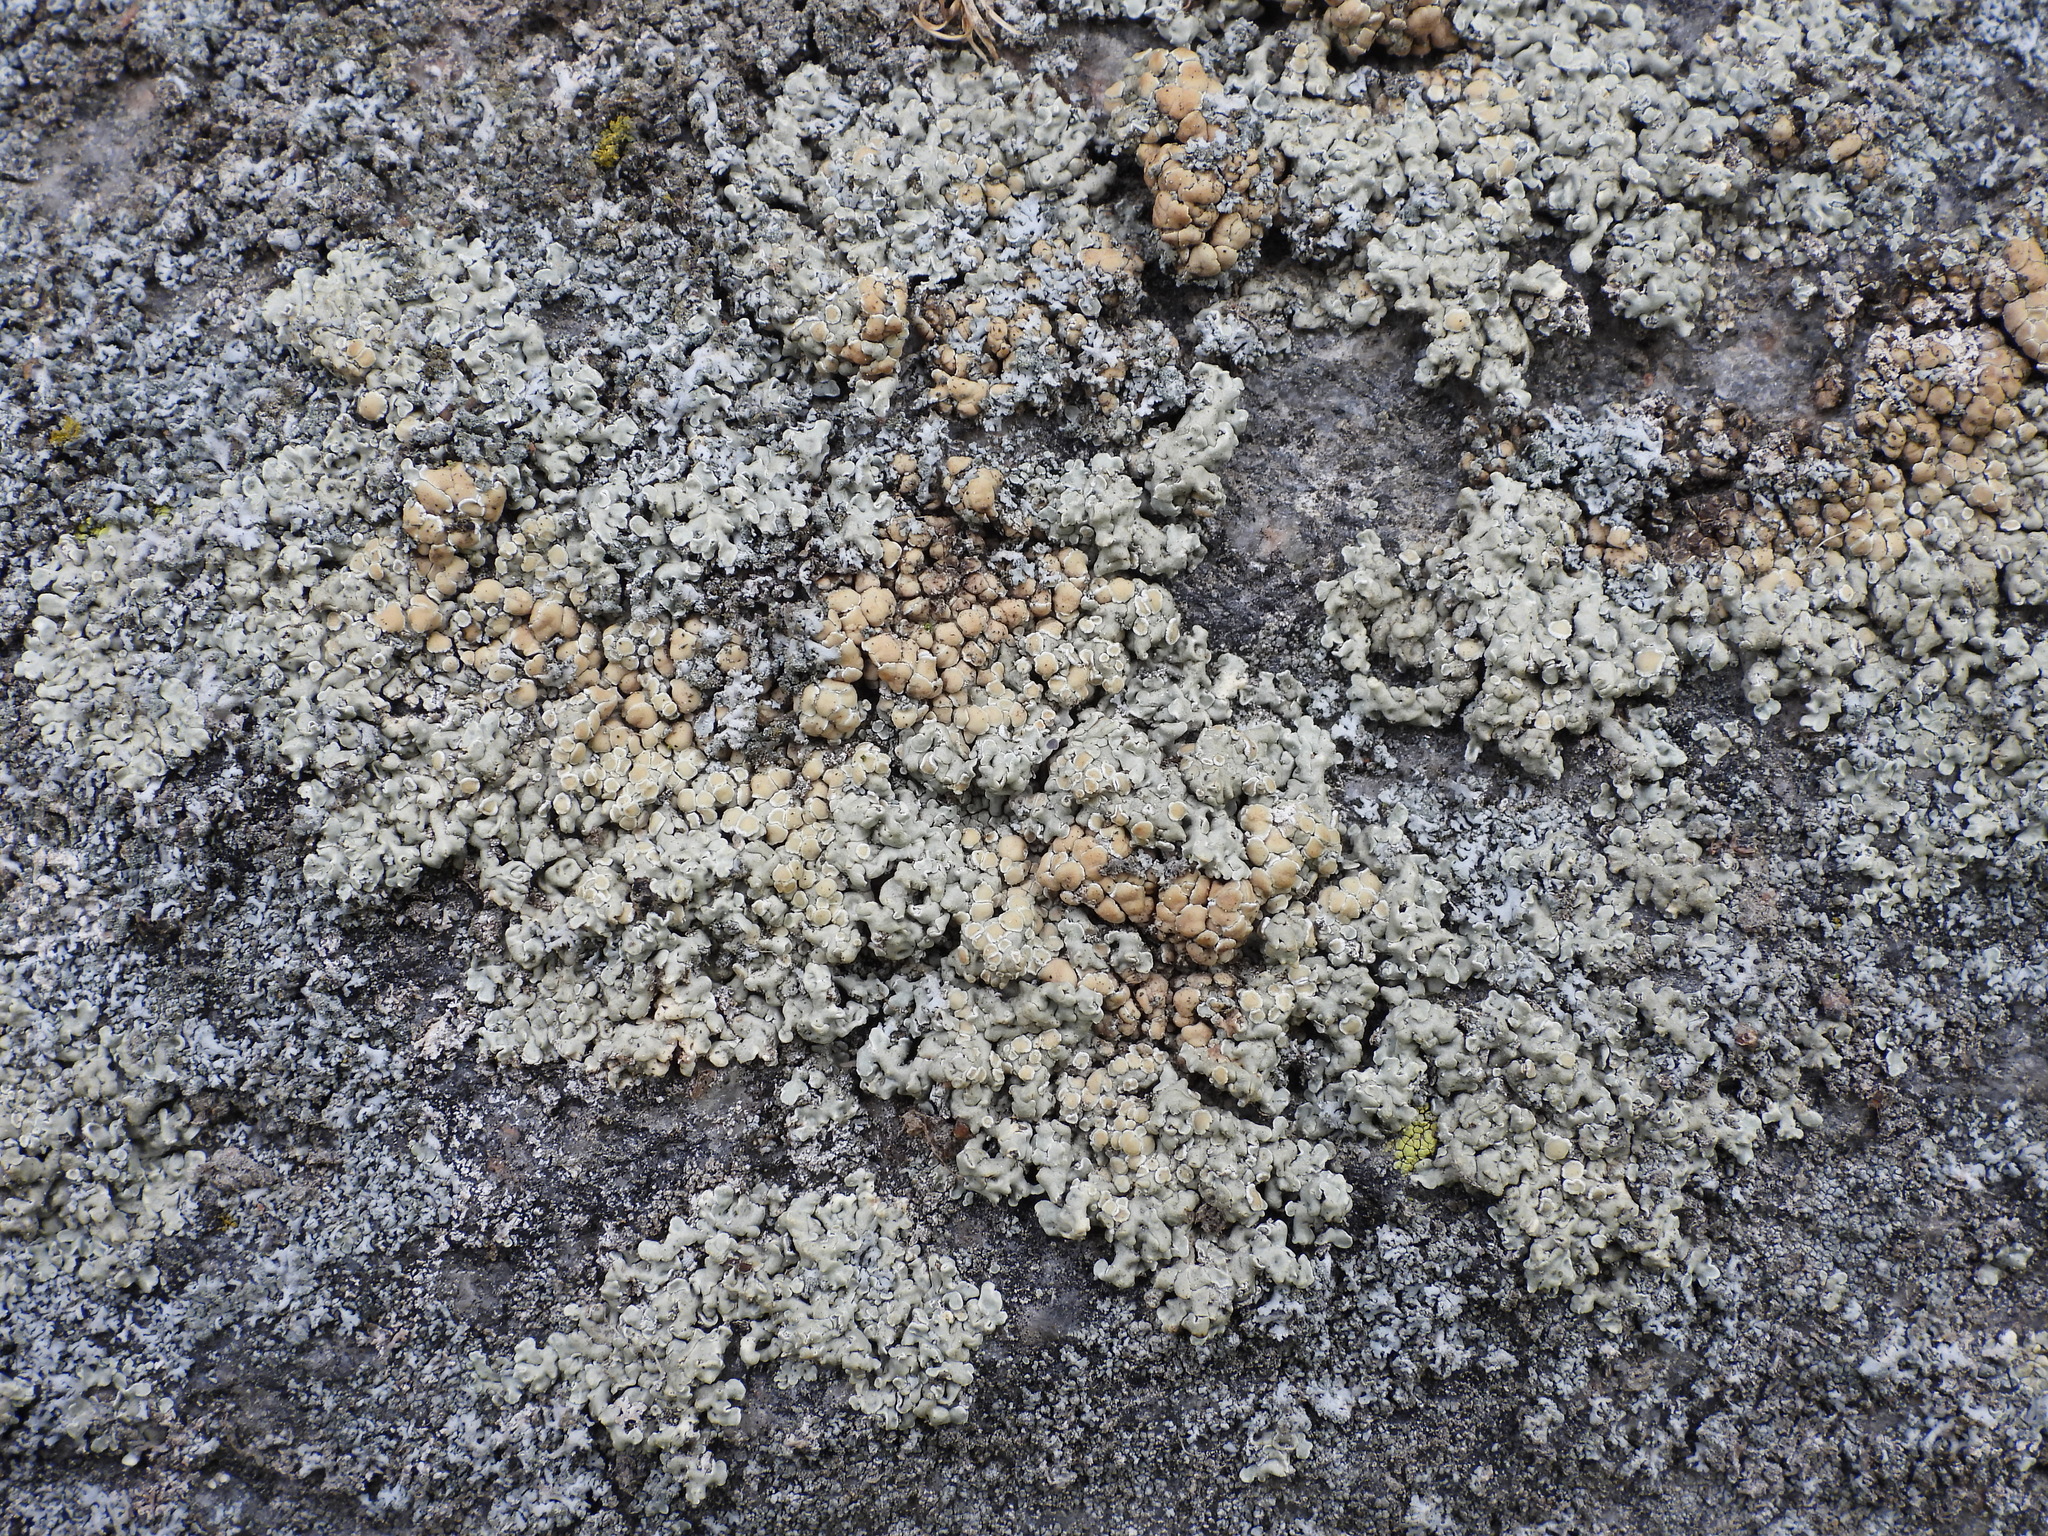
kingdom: Fungi
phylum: Ascomycota
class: Lecanoromycetes
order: Lecanorales
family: Lecanoraceae
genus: Protoparmeliopsis
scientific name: Protoparmeliopsis muralis
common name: Stonewall rim lichen
